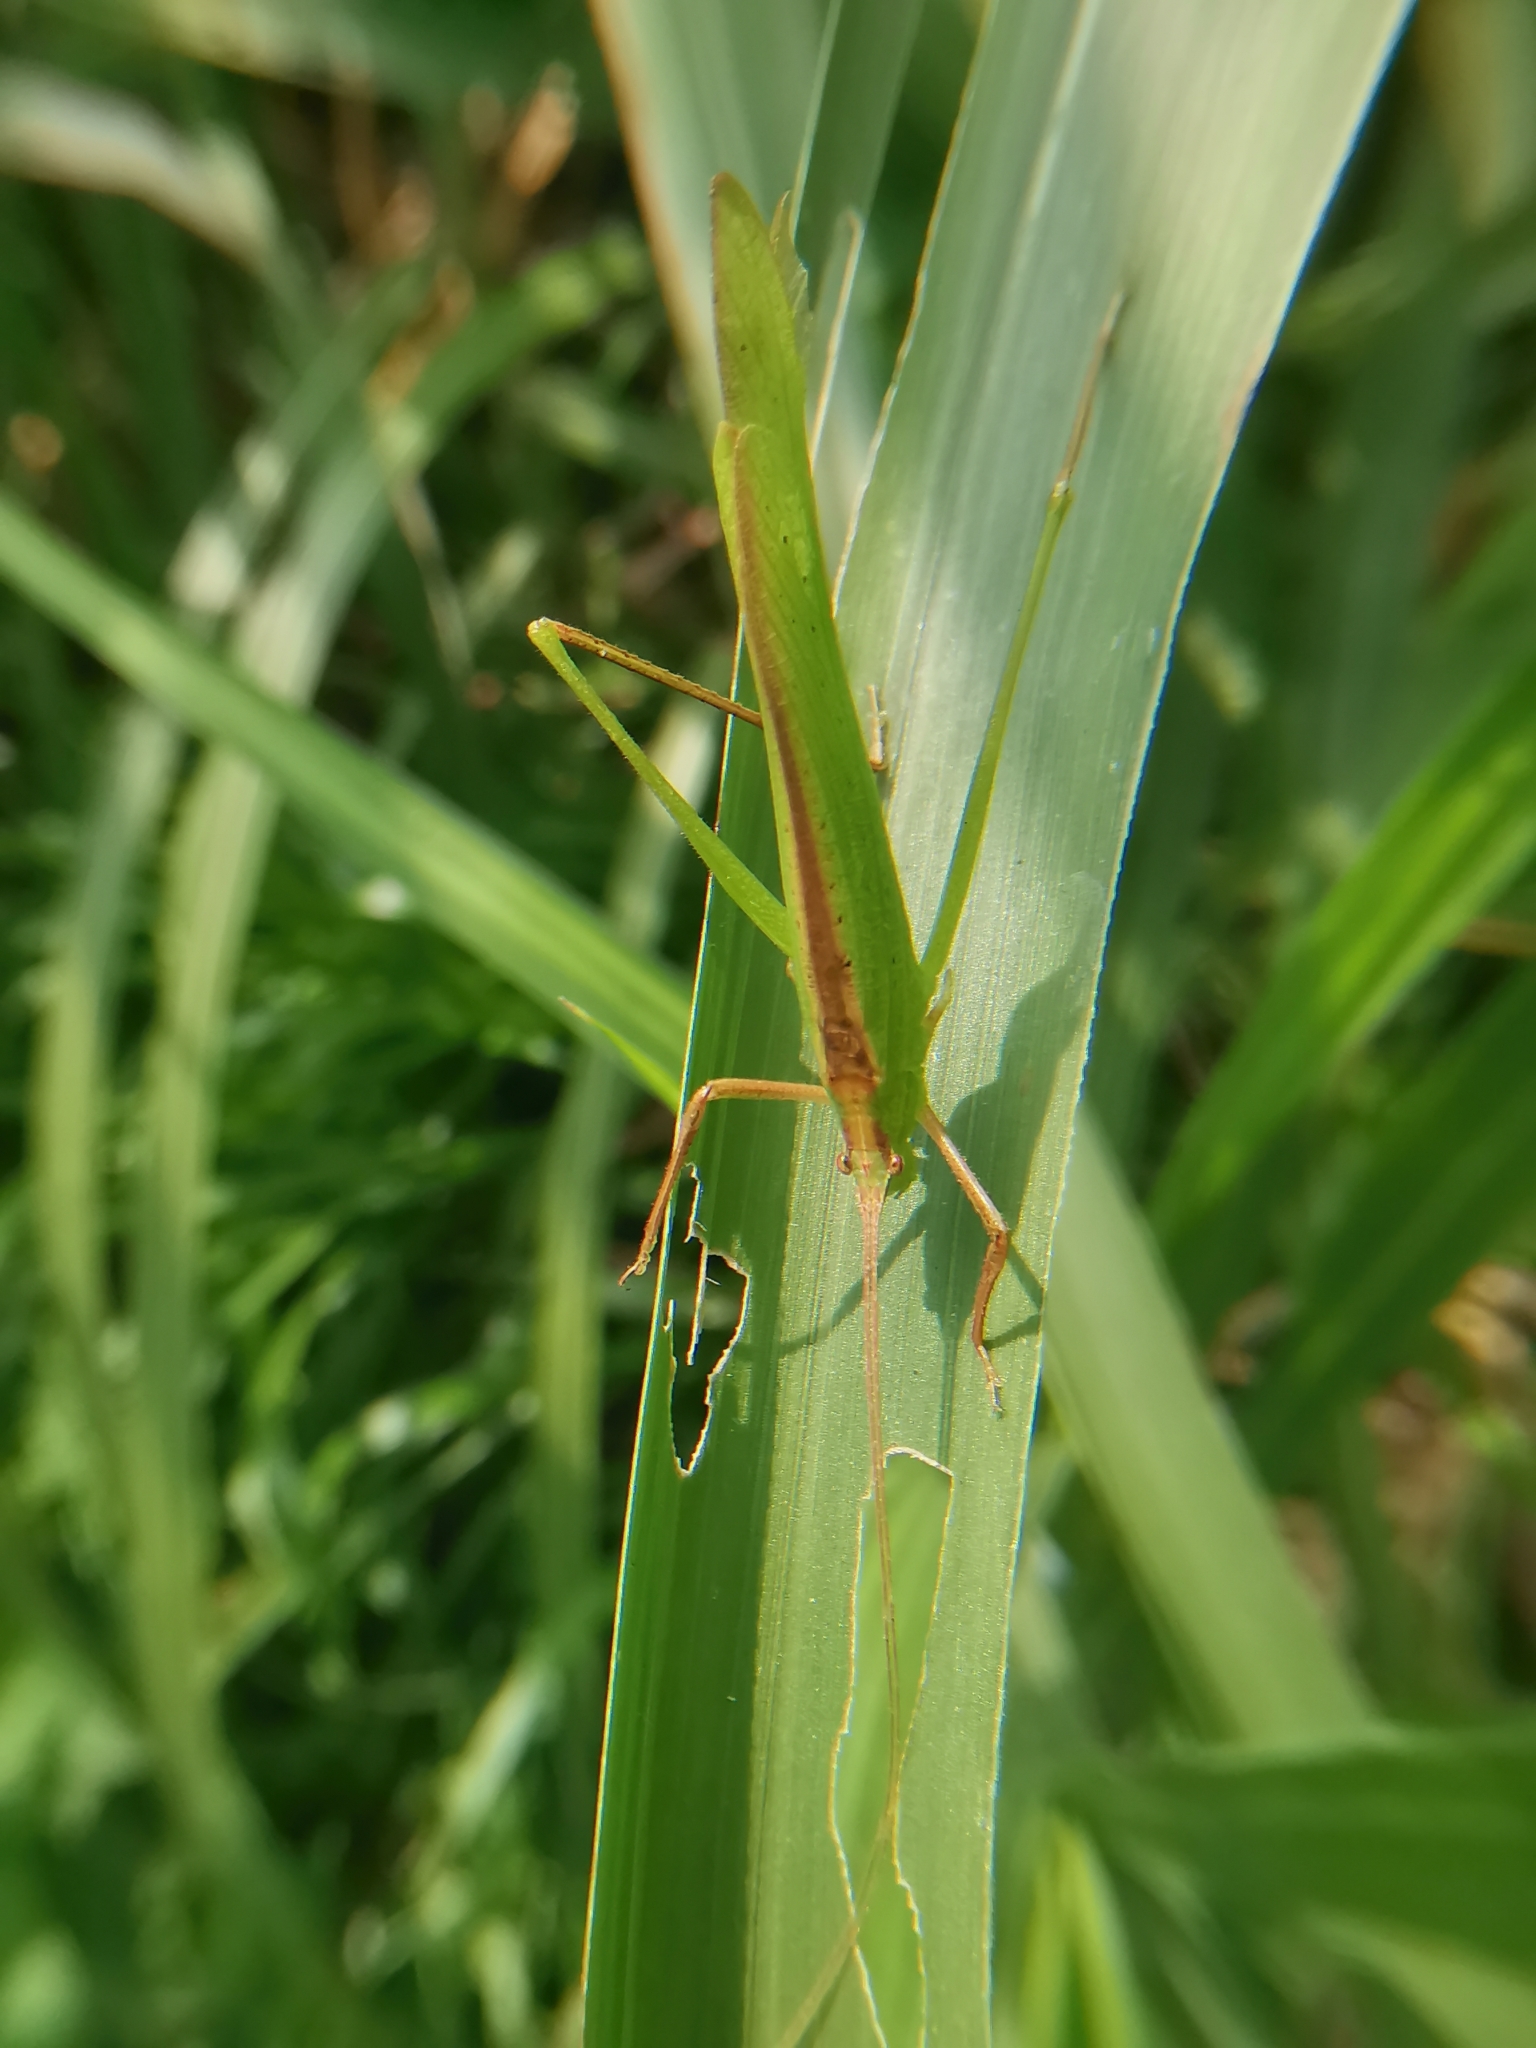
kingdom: Animalia
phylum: Arthropoda
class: Insecta
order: Orthoptera
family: Tettigoniidae
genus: Ducetia
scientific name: Ducetia malayana
